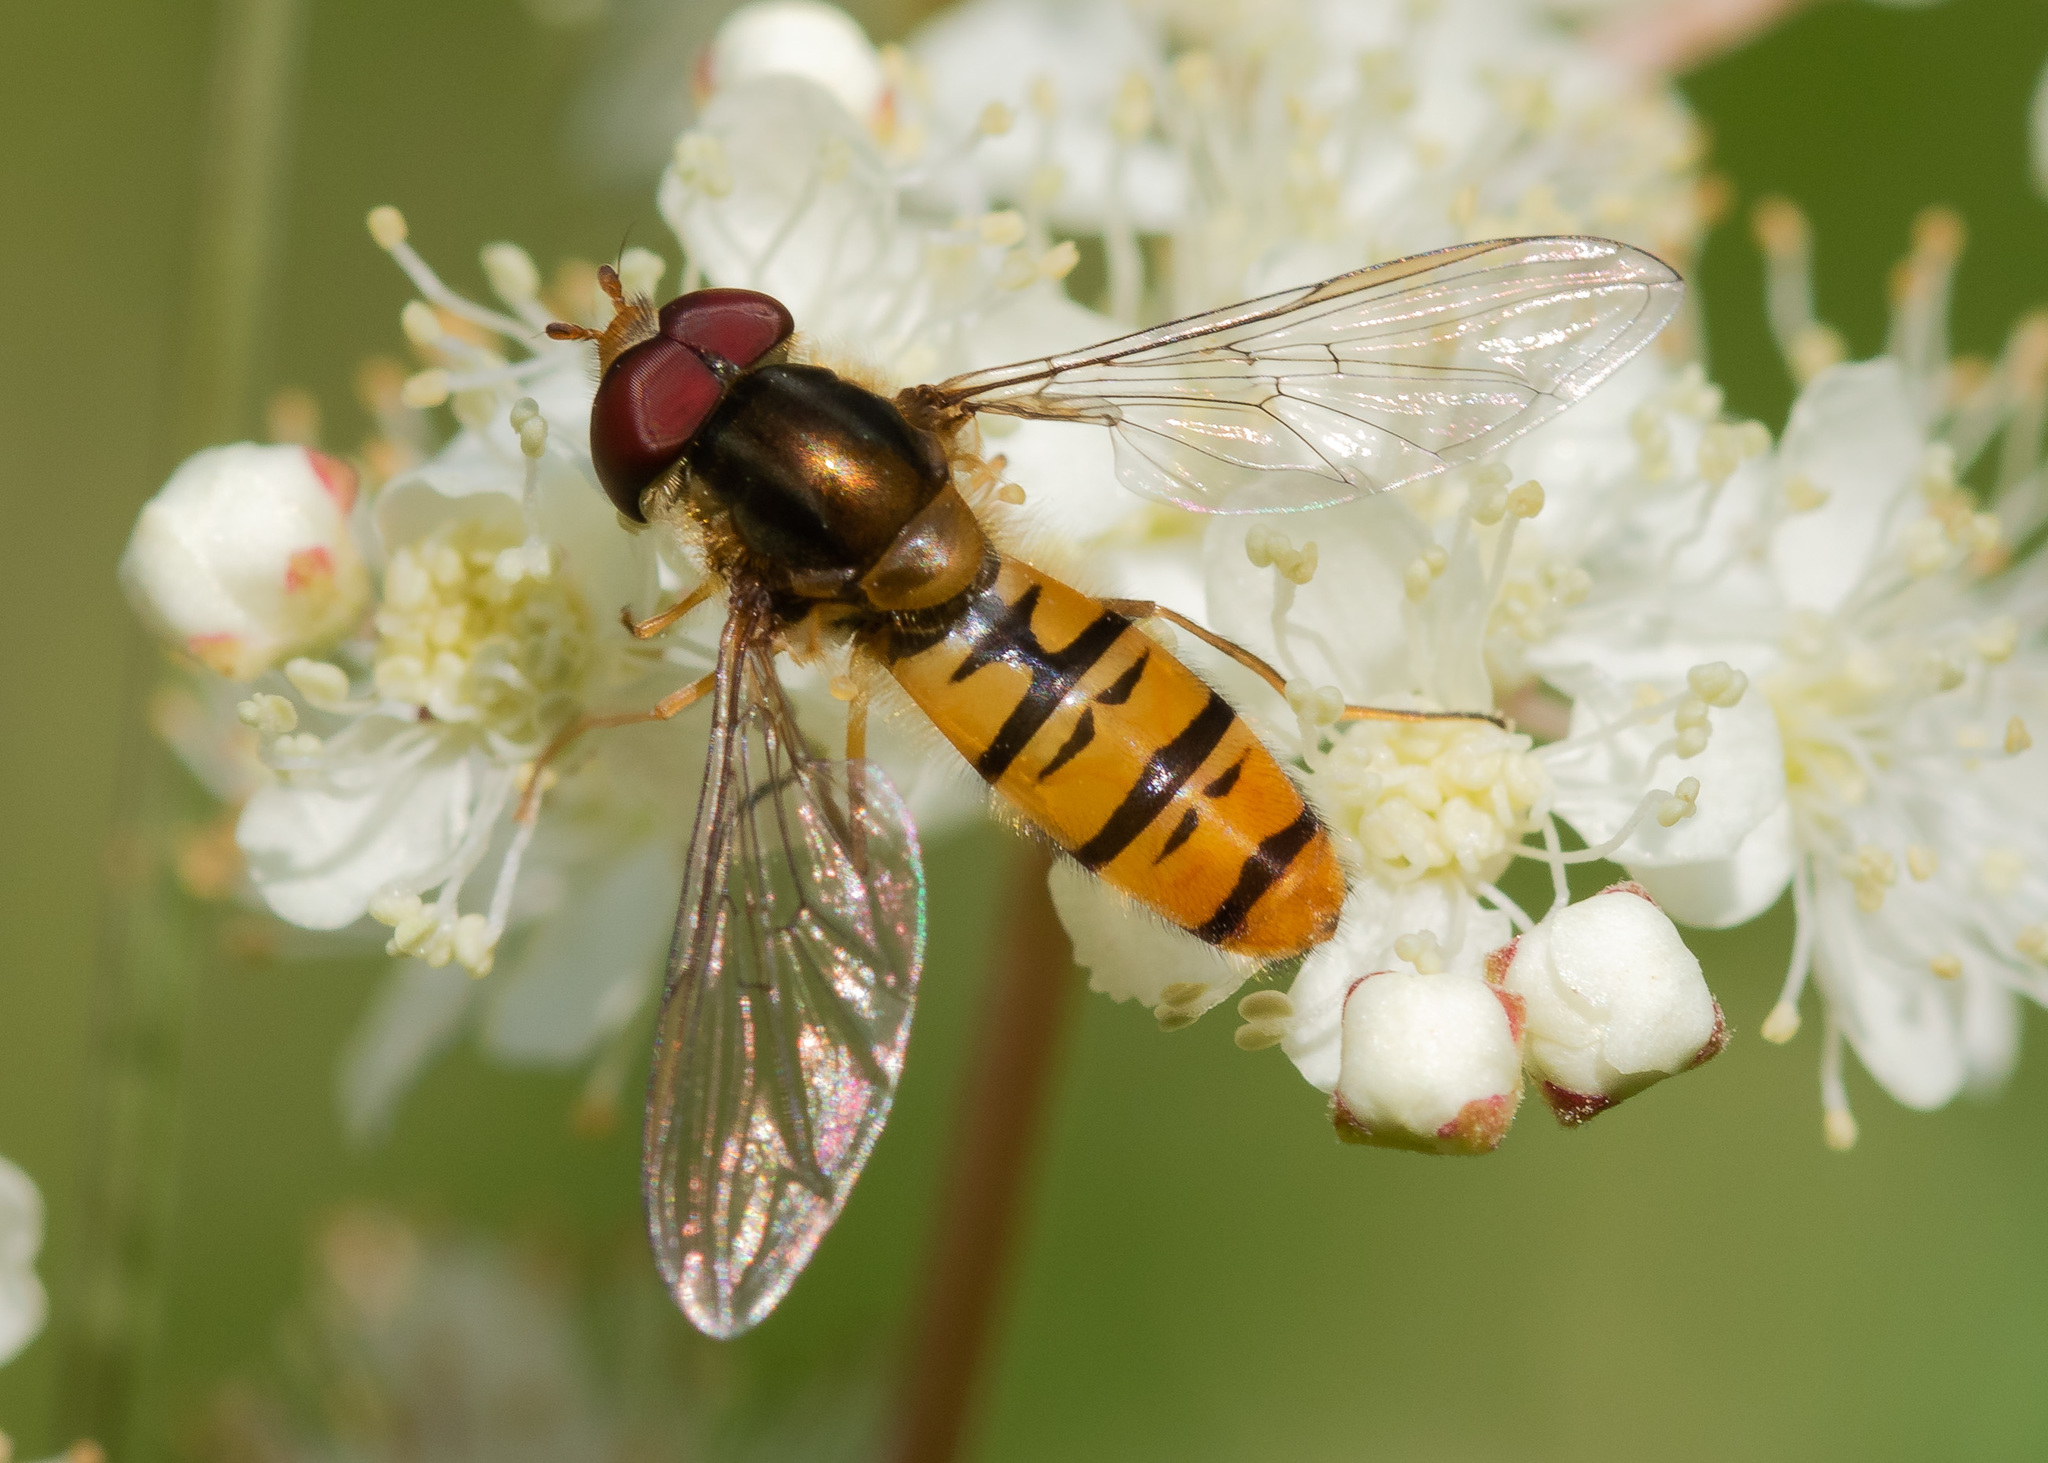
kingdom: Animalia
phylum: Arthropoda
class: Insecta
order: Diptera
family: Syrphidae
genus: Episyrphus
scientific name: Episyrphus balteatus
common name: Marmalade hoverfly
